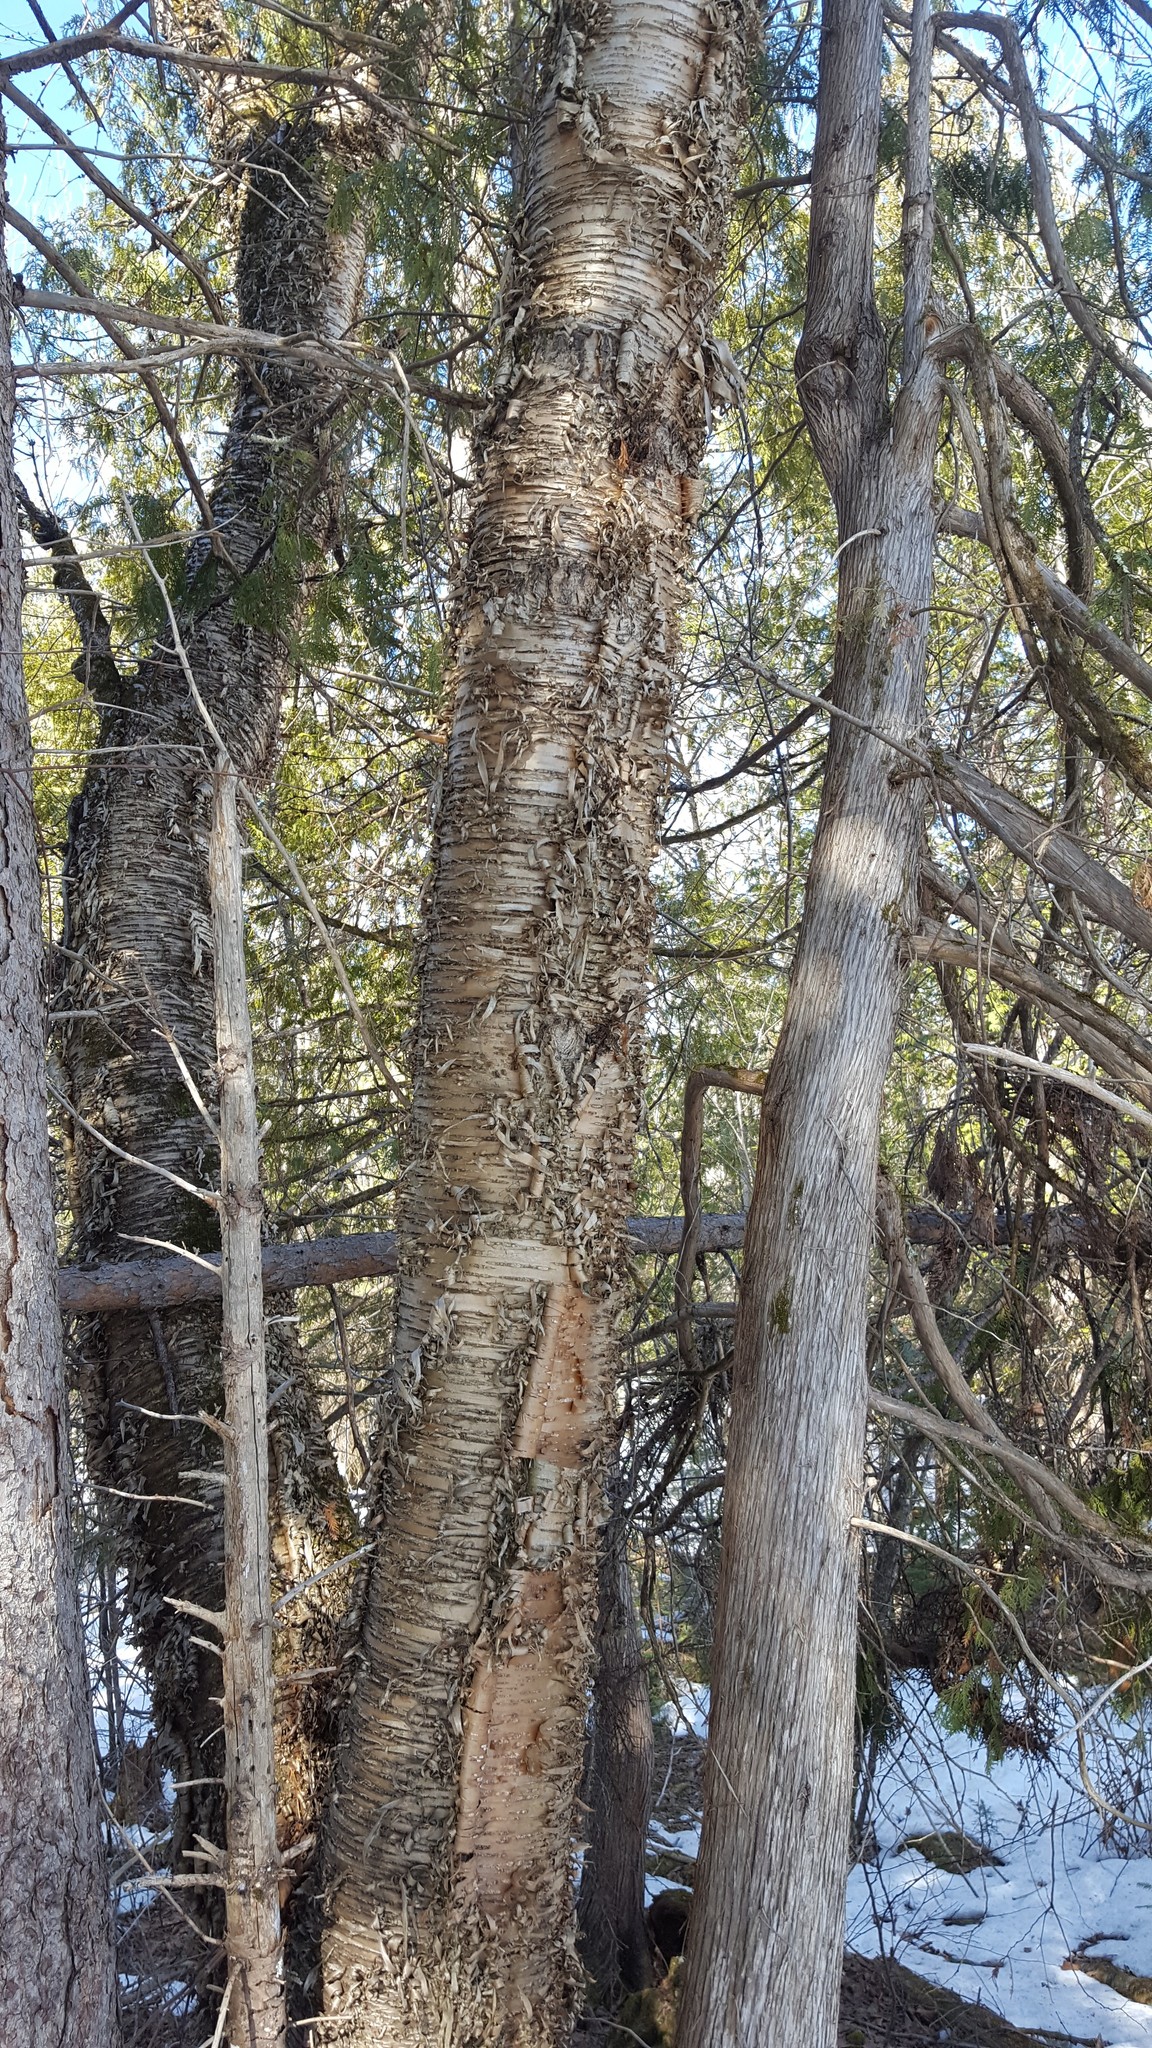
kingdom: Plantae
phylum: Tracheophyta
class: Magnoliopsida
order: Fagales
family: Betulaceae
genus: Betula
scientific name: Betula alleghaniensis
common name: Yellow birch
